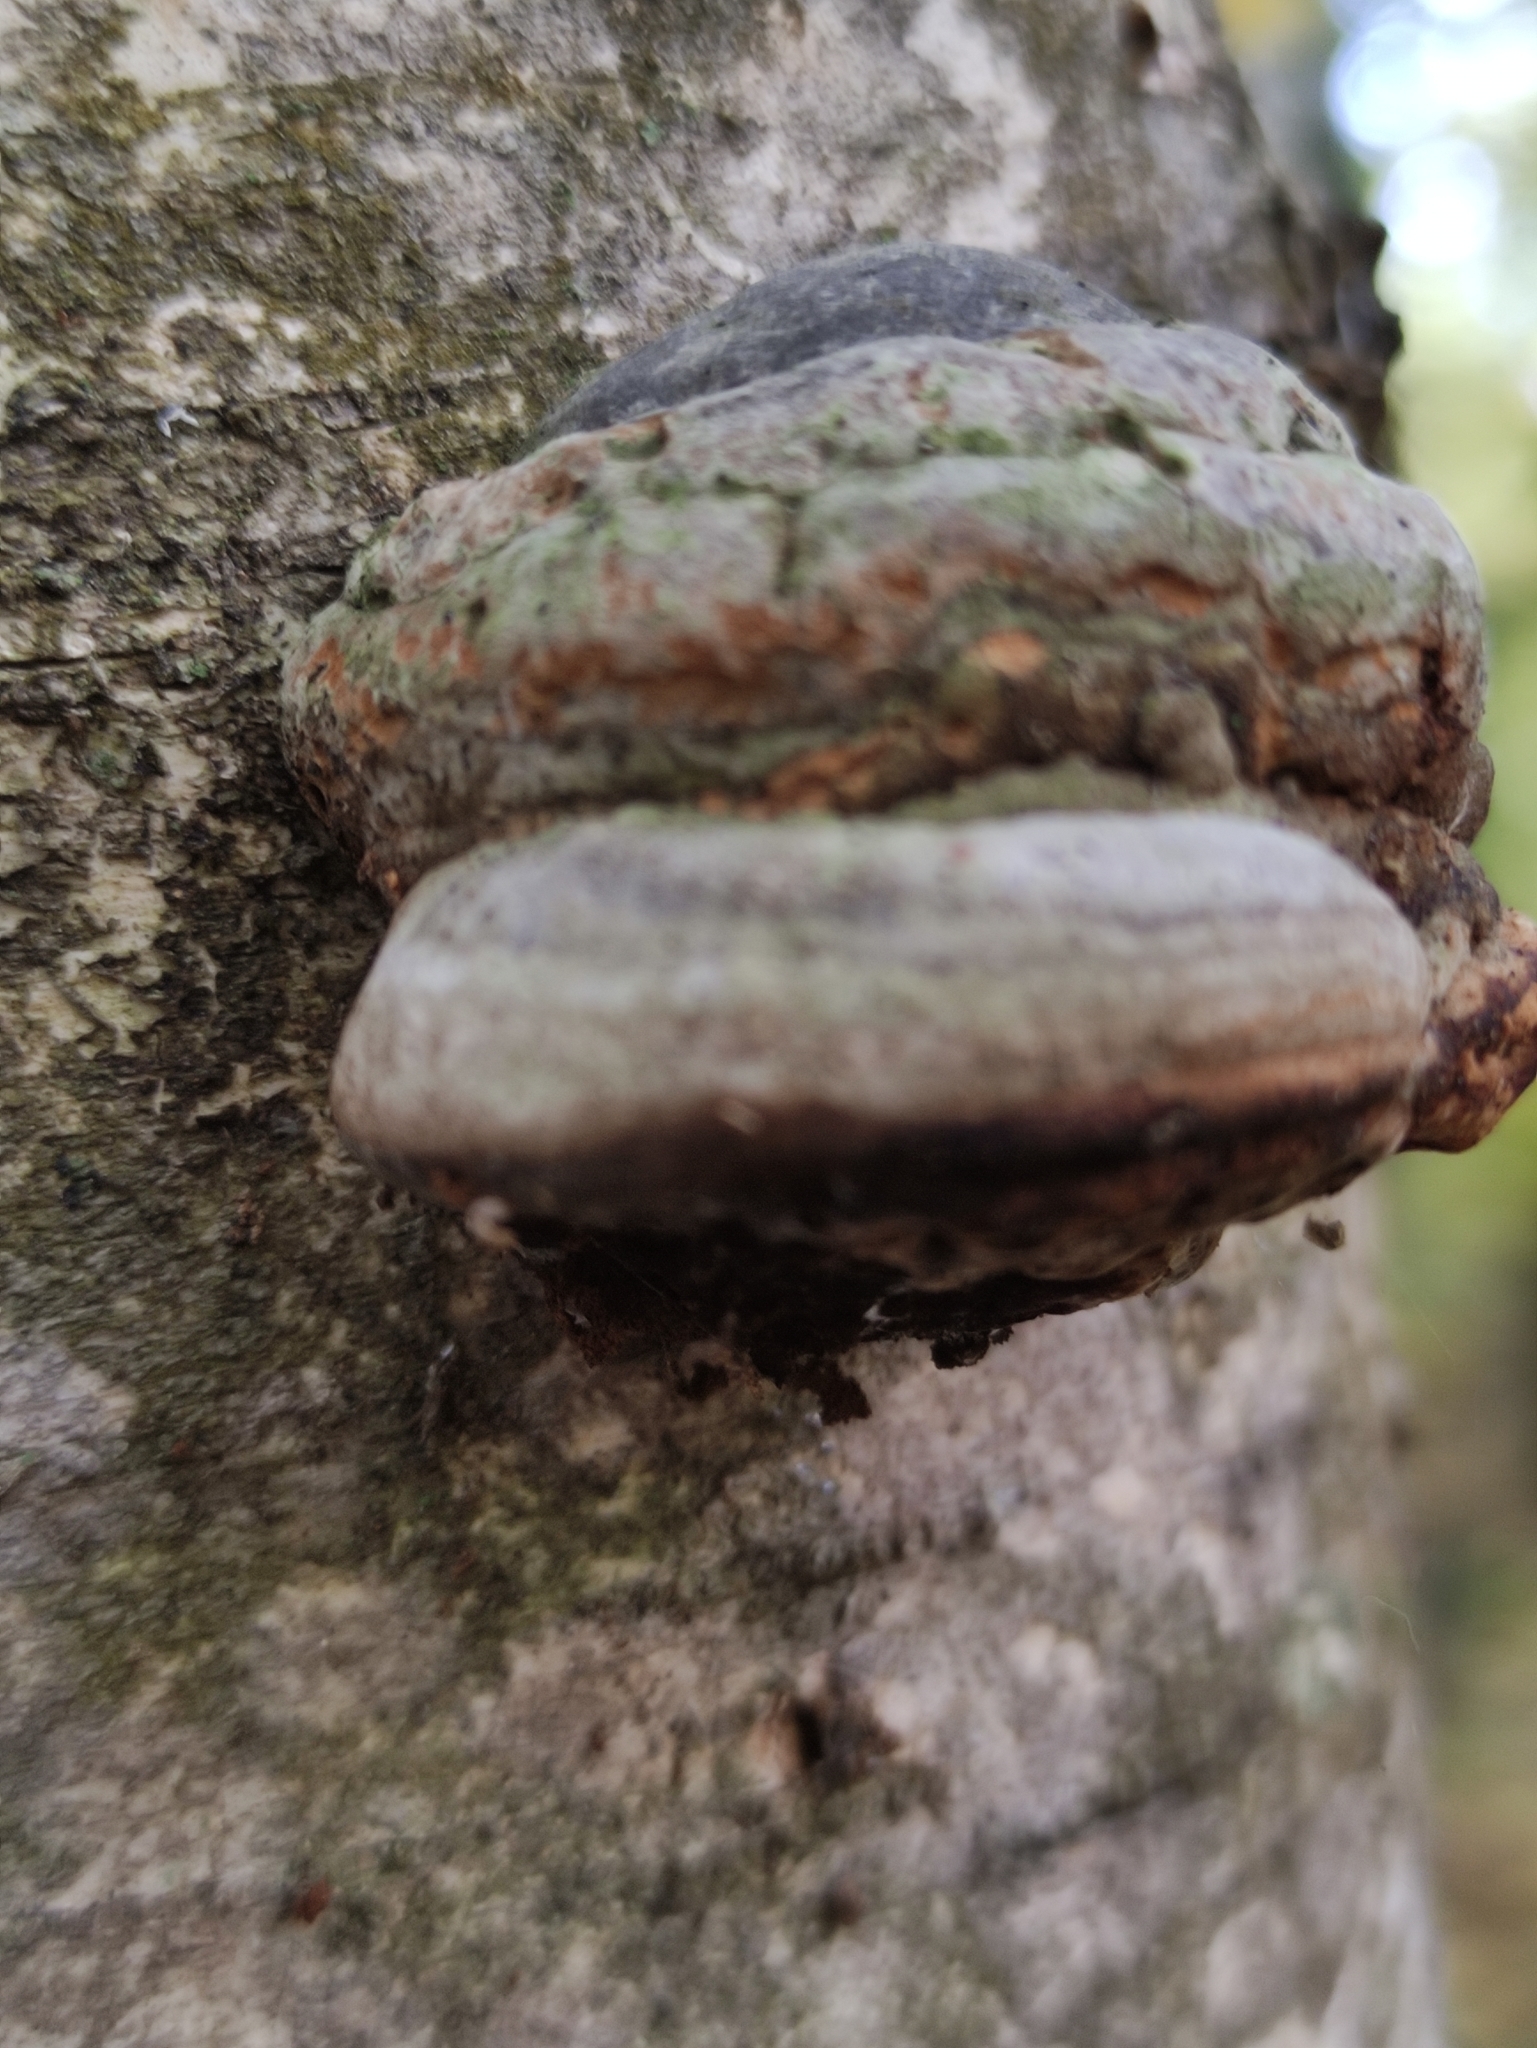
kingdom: Fungi
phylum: Basidiomycota
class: Agaricomycetes
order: Polyporales
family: Polyporaceae
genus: Fomes
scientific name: Fomes fomentarius
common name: Hoof fungus
